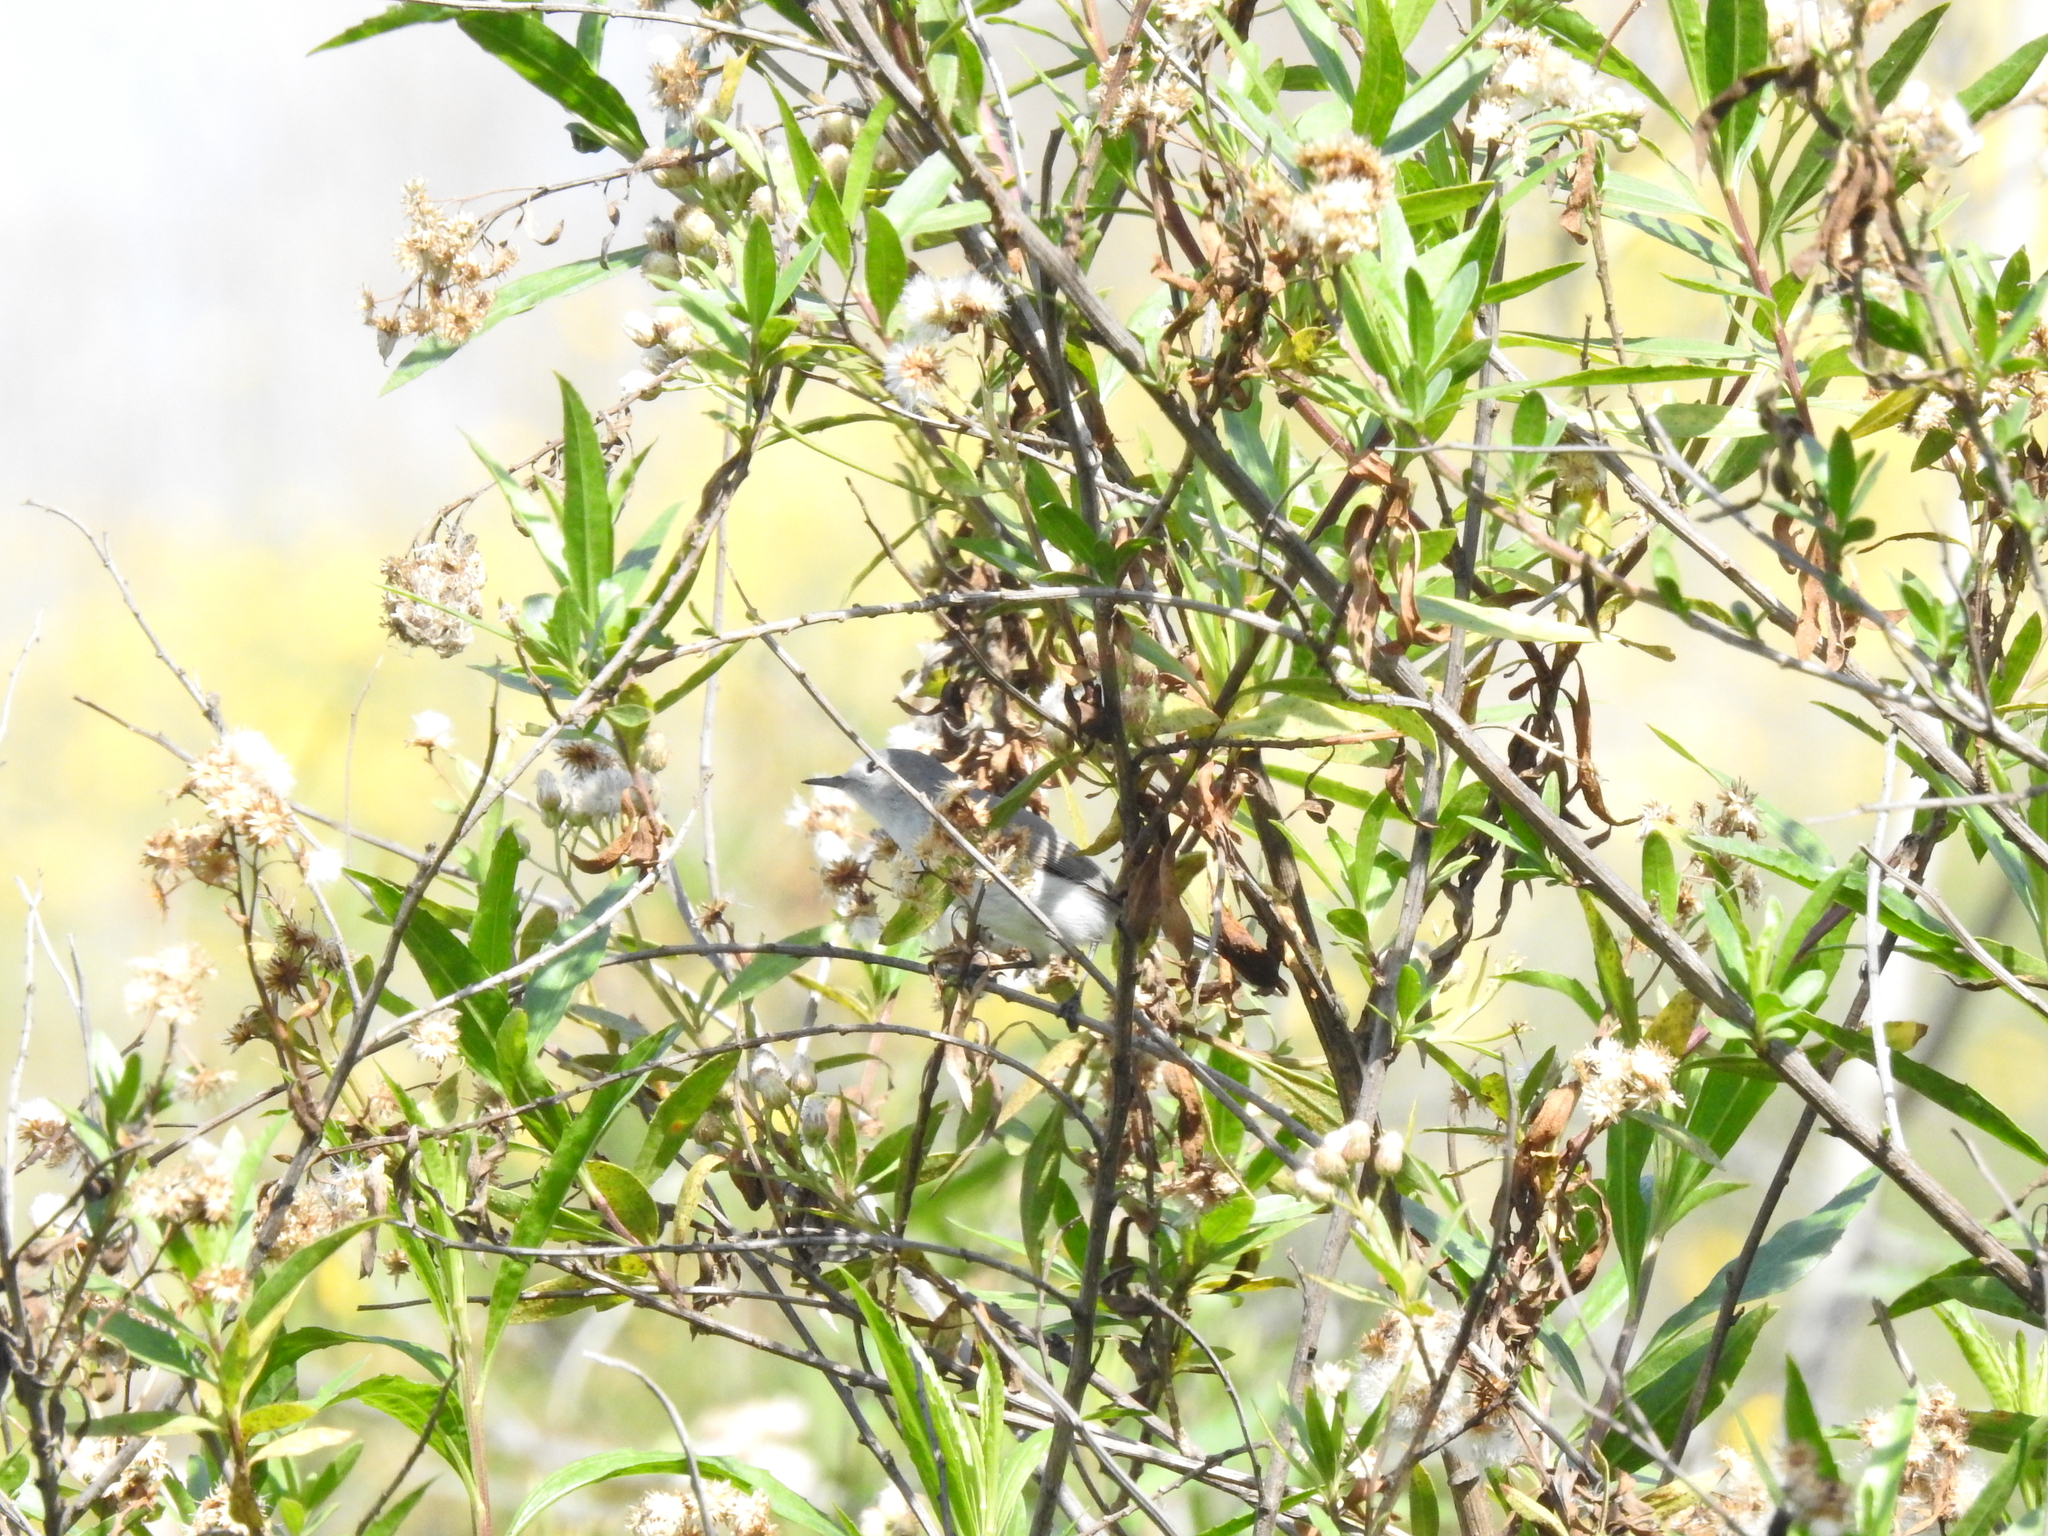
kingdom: Animalia
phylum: Chordata
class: Aves
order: Passeriformes
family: Polioptilidae
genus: Polioptila
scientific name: Polioptila caerulea
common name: Blue-gray gnatcatcher
